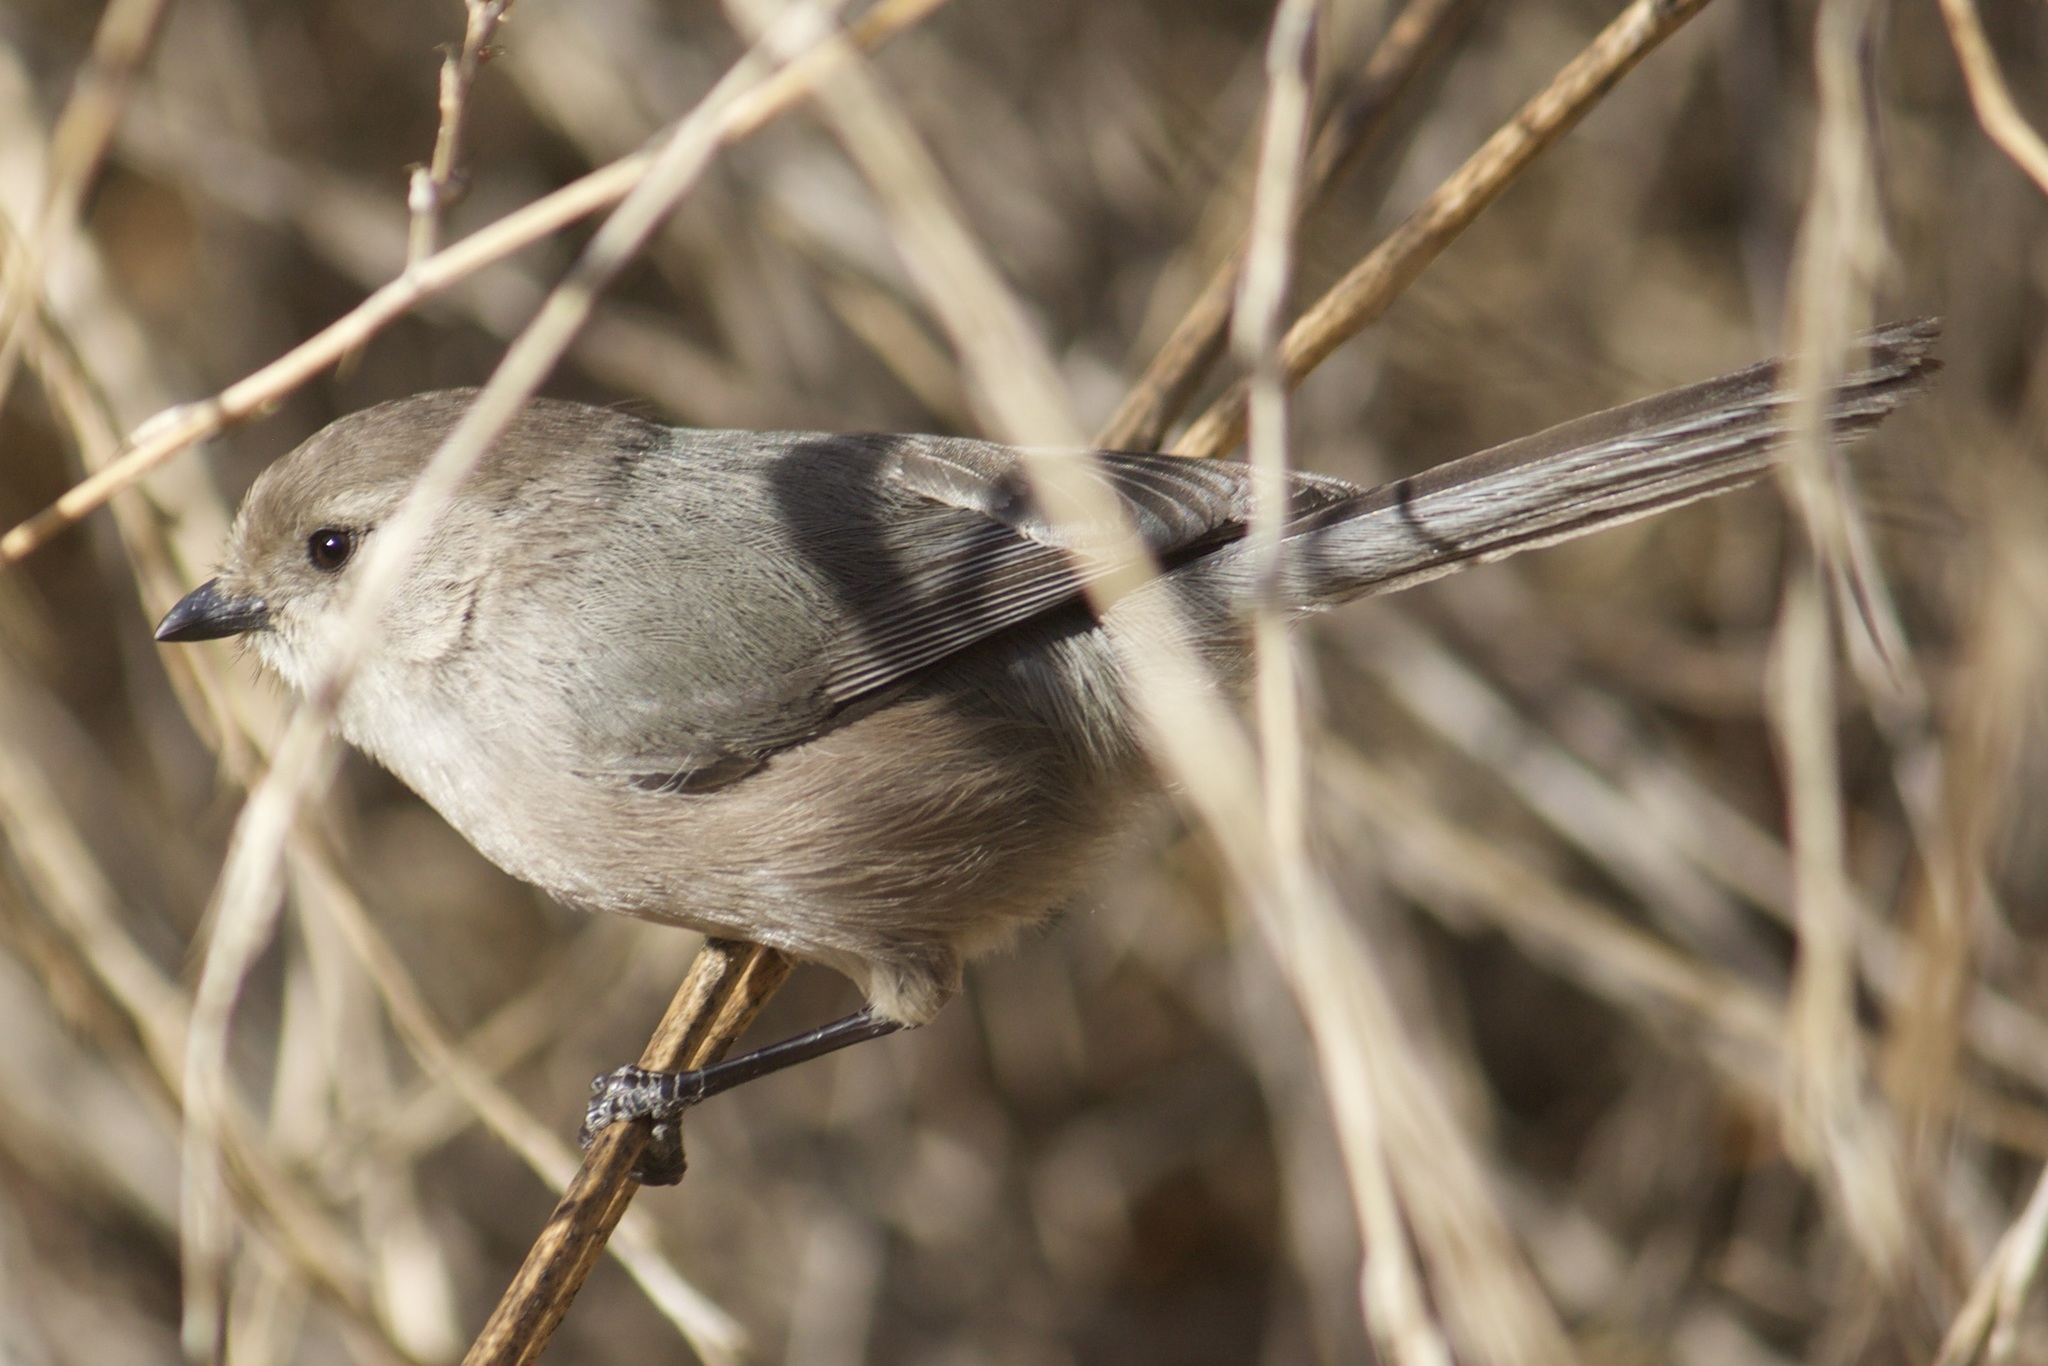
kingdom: Animalia
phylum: Chordata
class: Aves
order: Passeriformes
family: Aegithalidae
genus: Psaltriparus
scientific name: Psaltriparus minimus
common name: American bushtit
